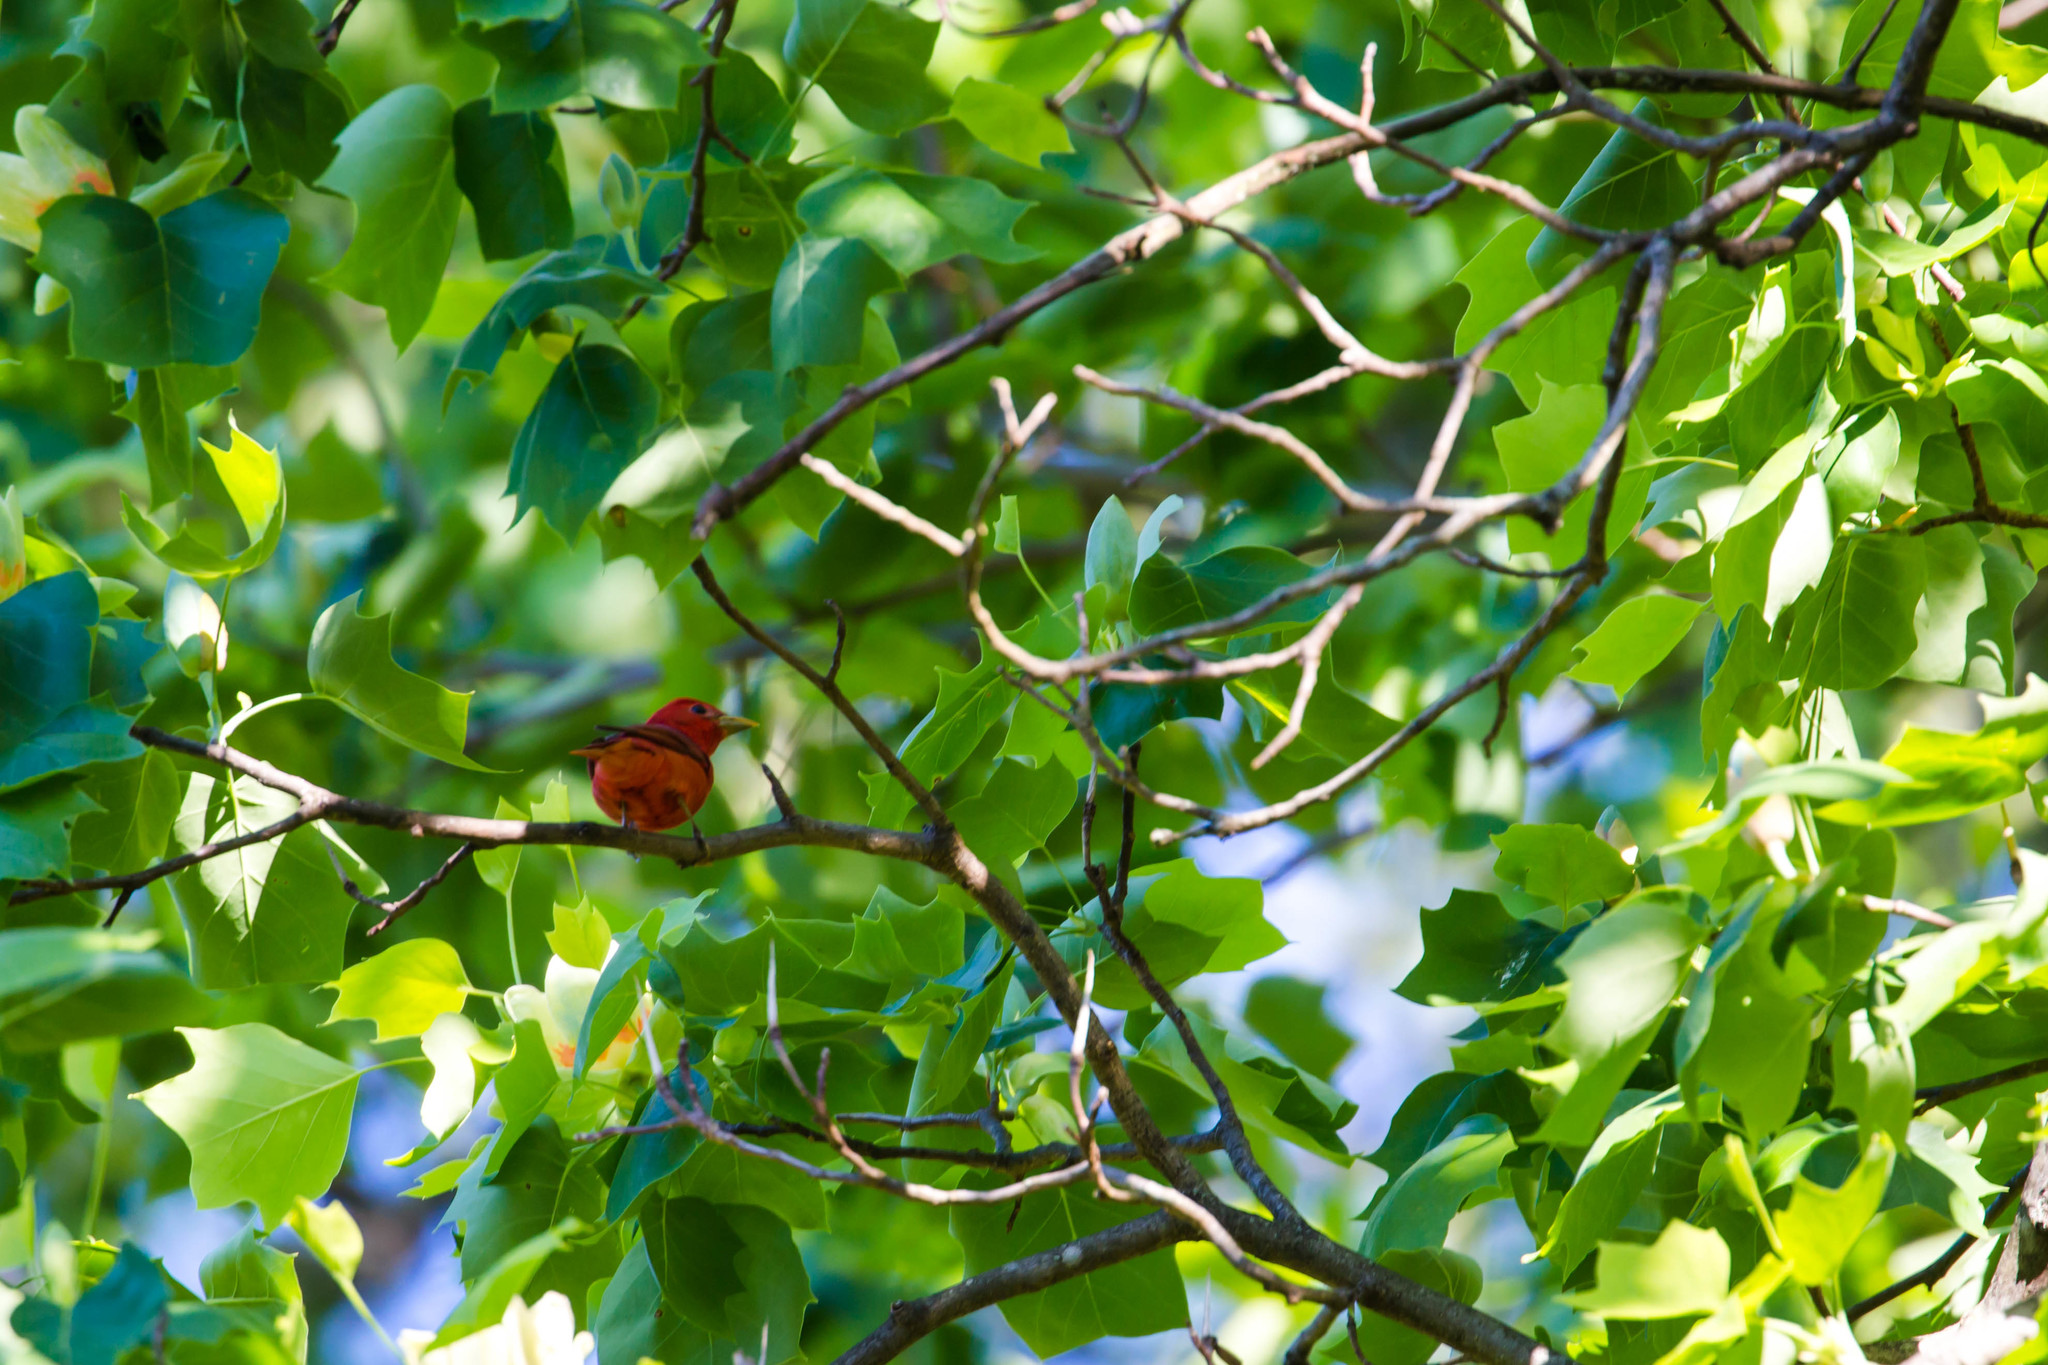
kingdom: Animalia
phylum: Chordata
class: Aves
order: Passeriformes
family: Cardinalidae
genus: Piranga
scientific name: Piranga rubra
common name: Summer tanager
